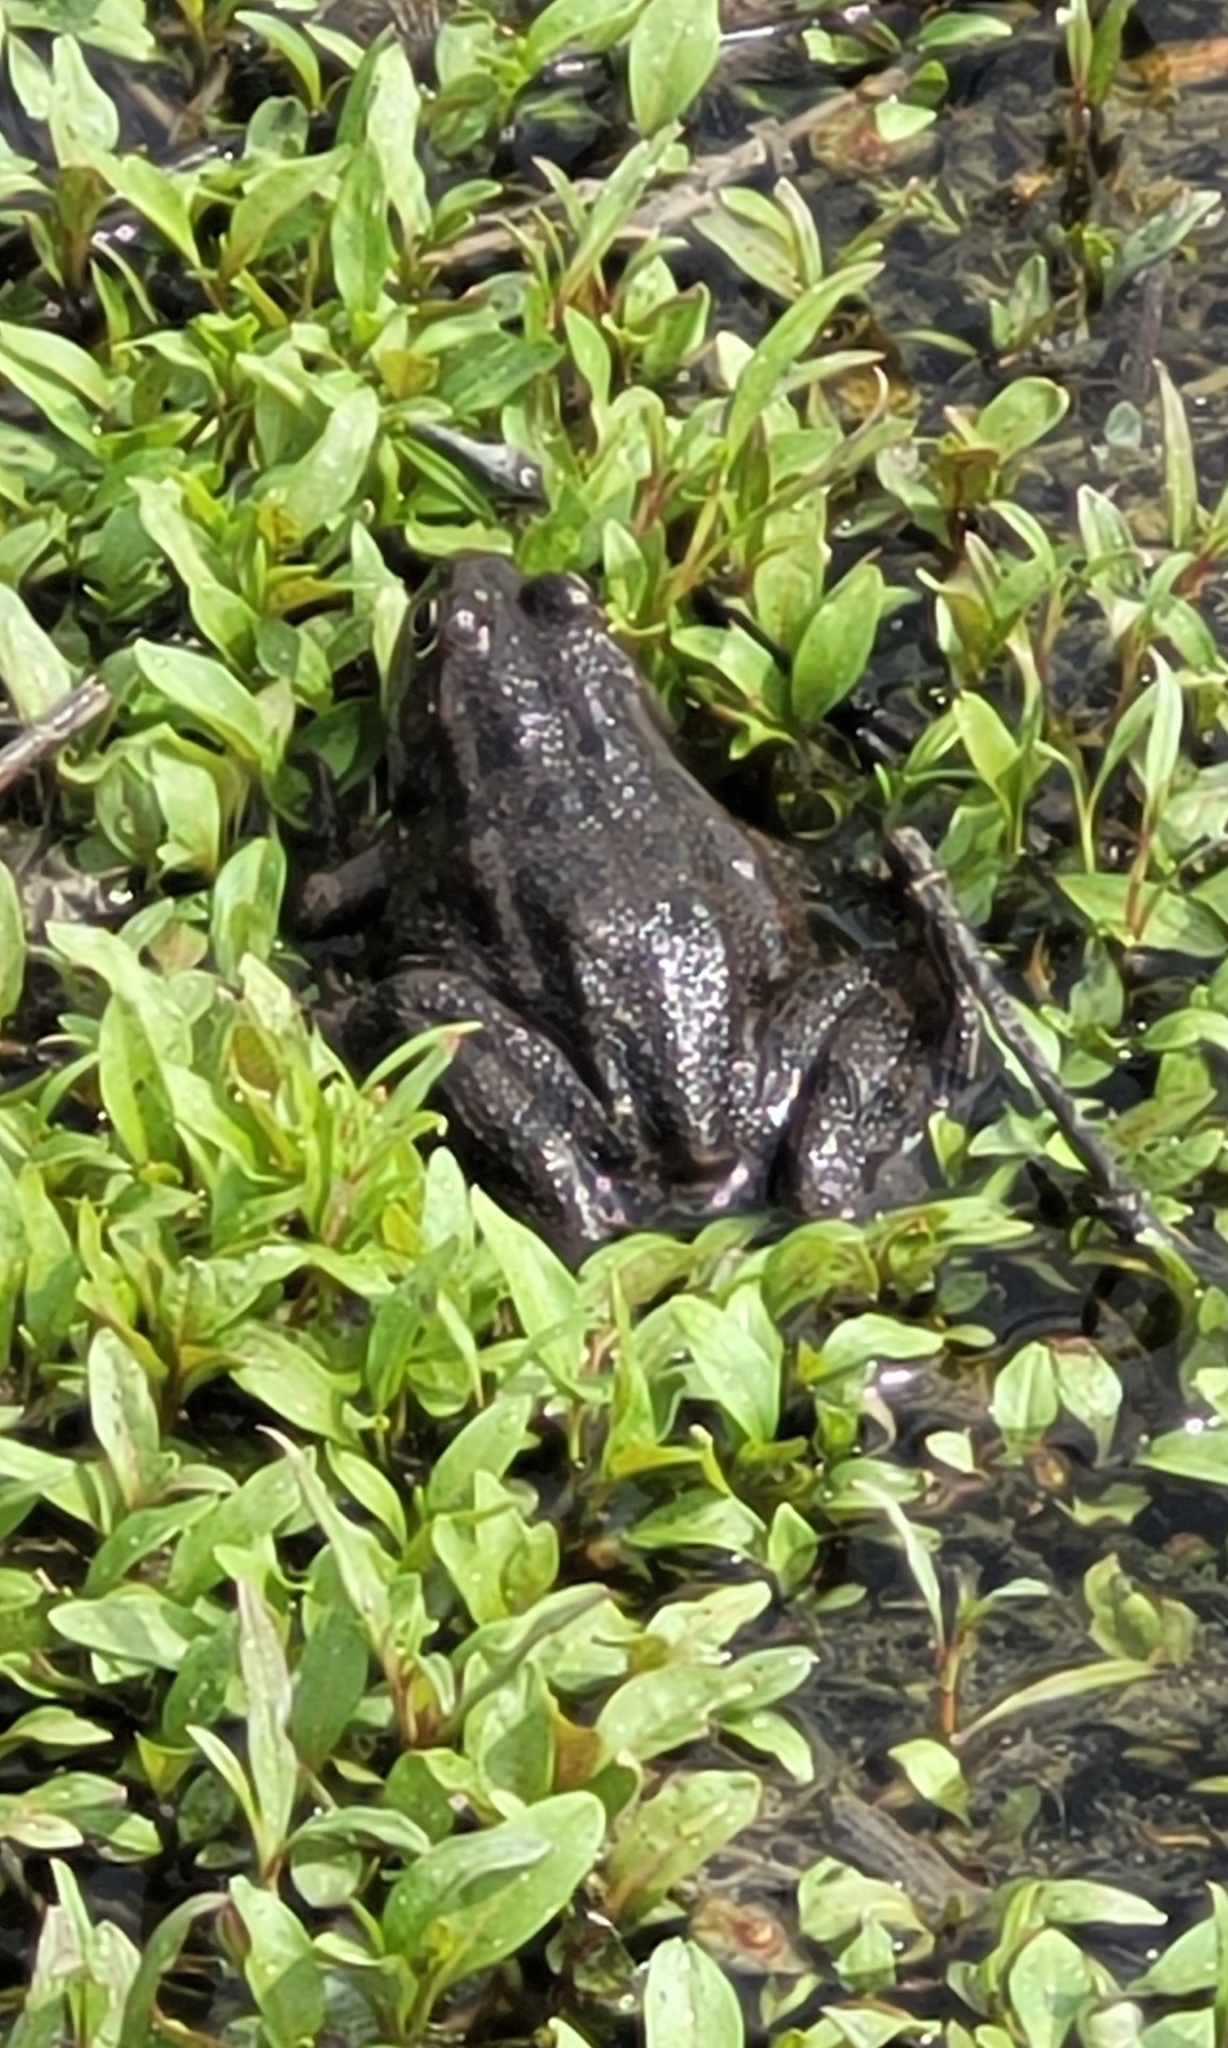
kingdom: Animalia
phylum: Chordata
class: Amphibia
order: Anura
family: Ranidae
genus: Pelophylax
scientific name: Pelophylax ridibundus
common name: Marsh frog
